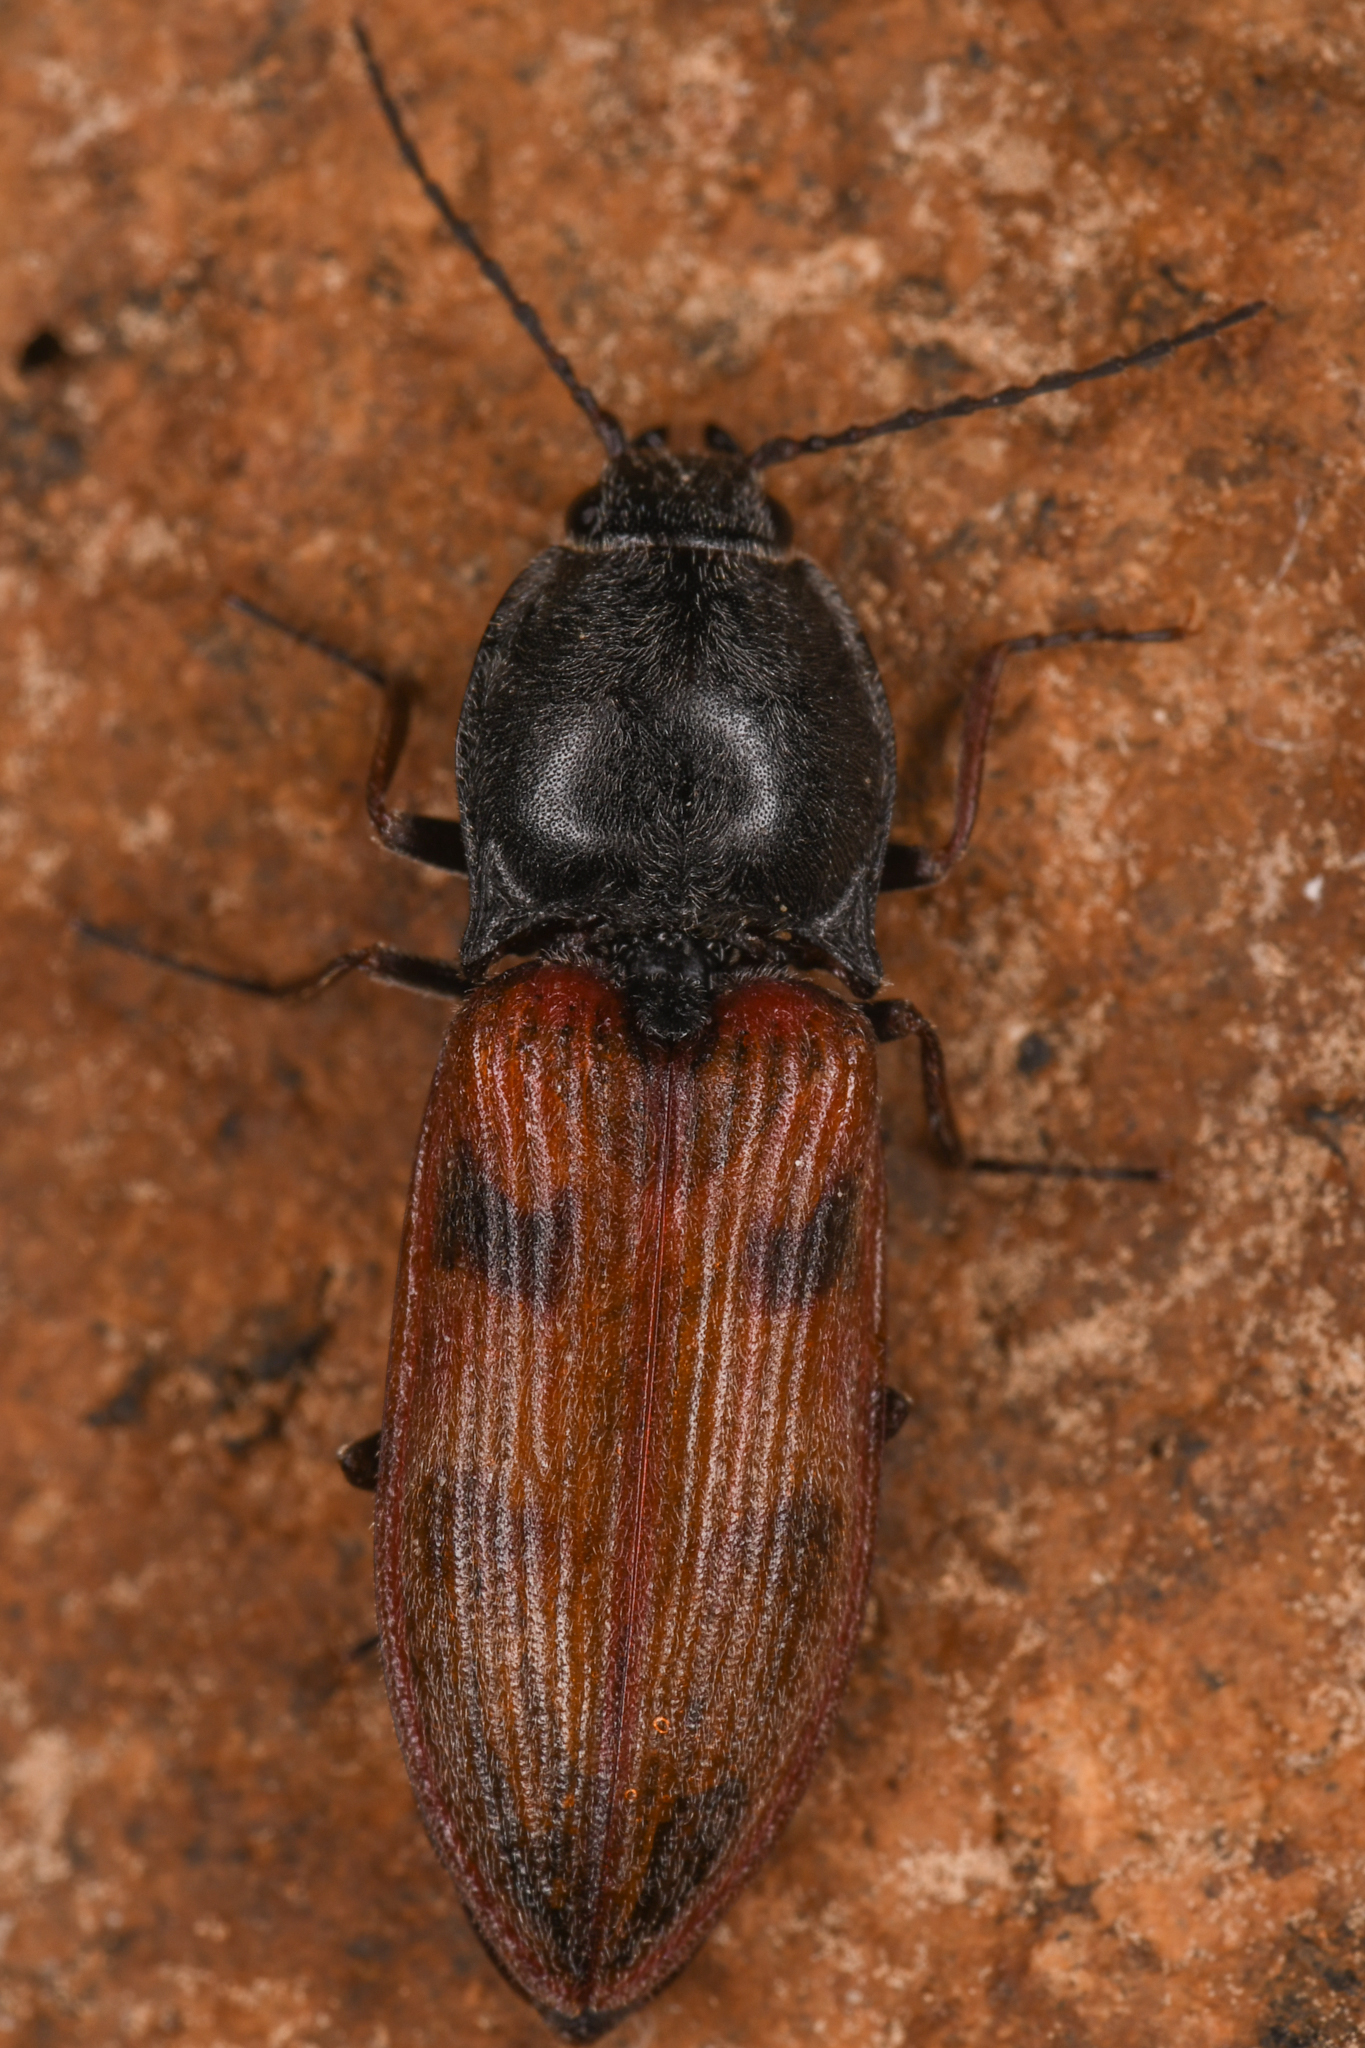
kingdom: Animalia
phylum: Arthropoda
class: Insecta
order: Coleoptera
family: Elateridae
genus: Stropenron
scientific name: Stropenron nigricollis
